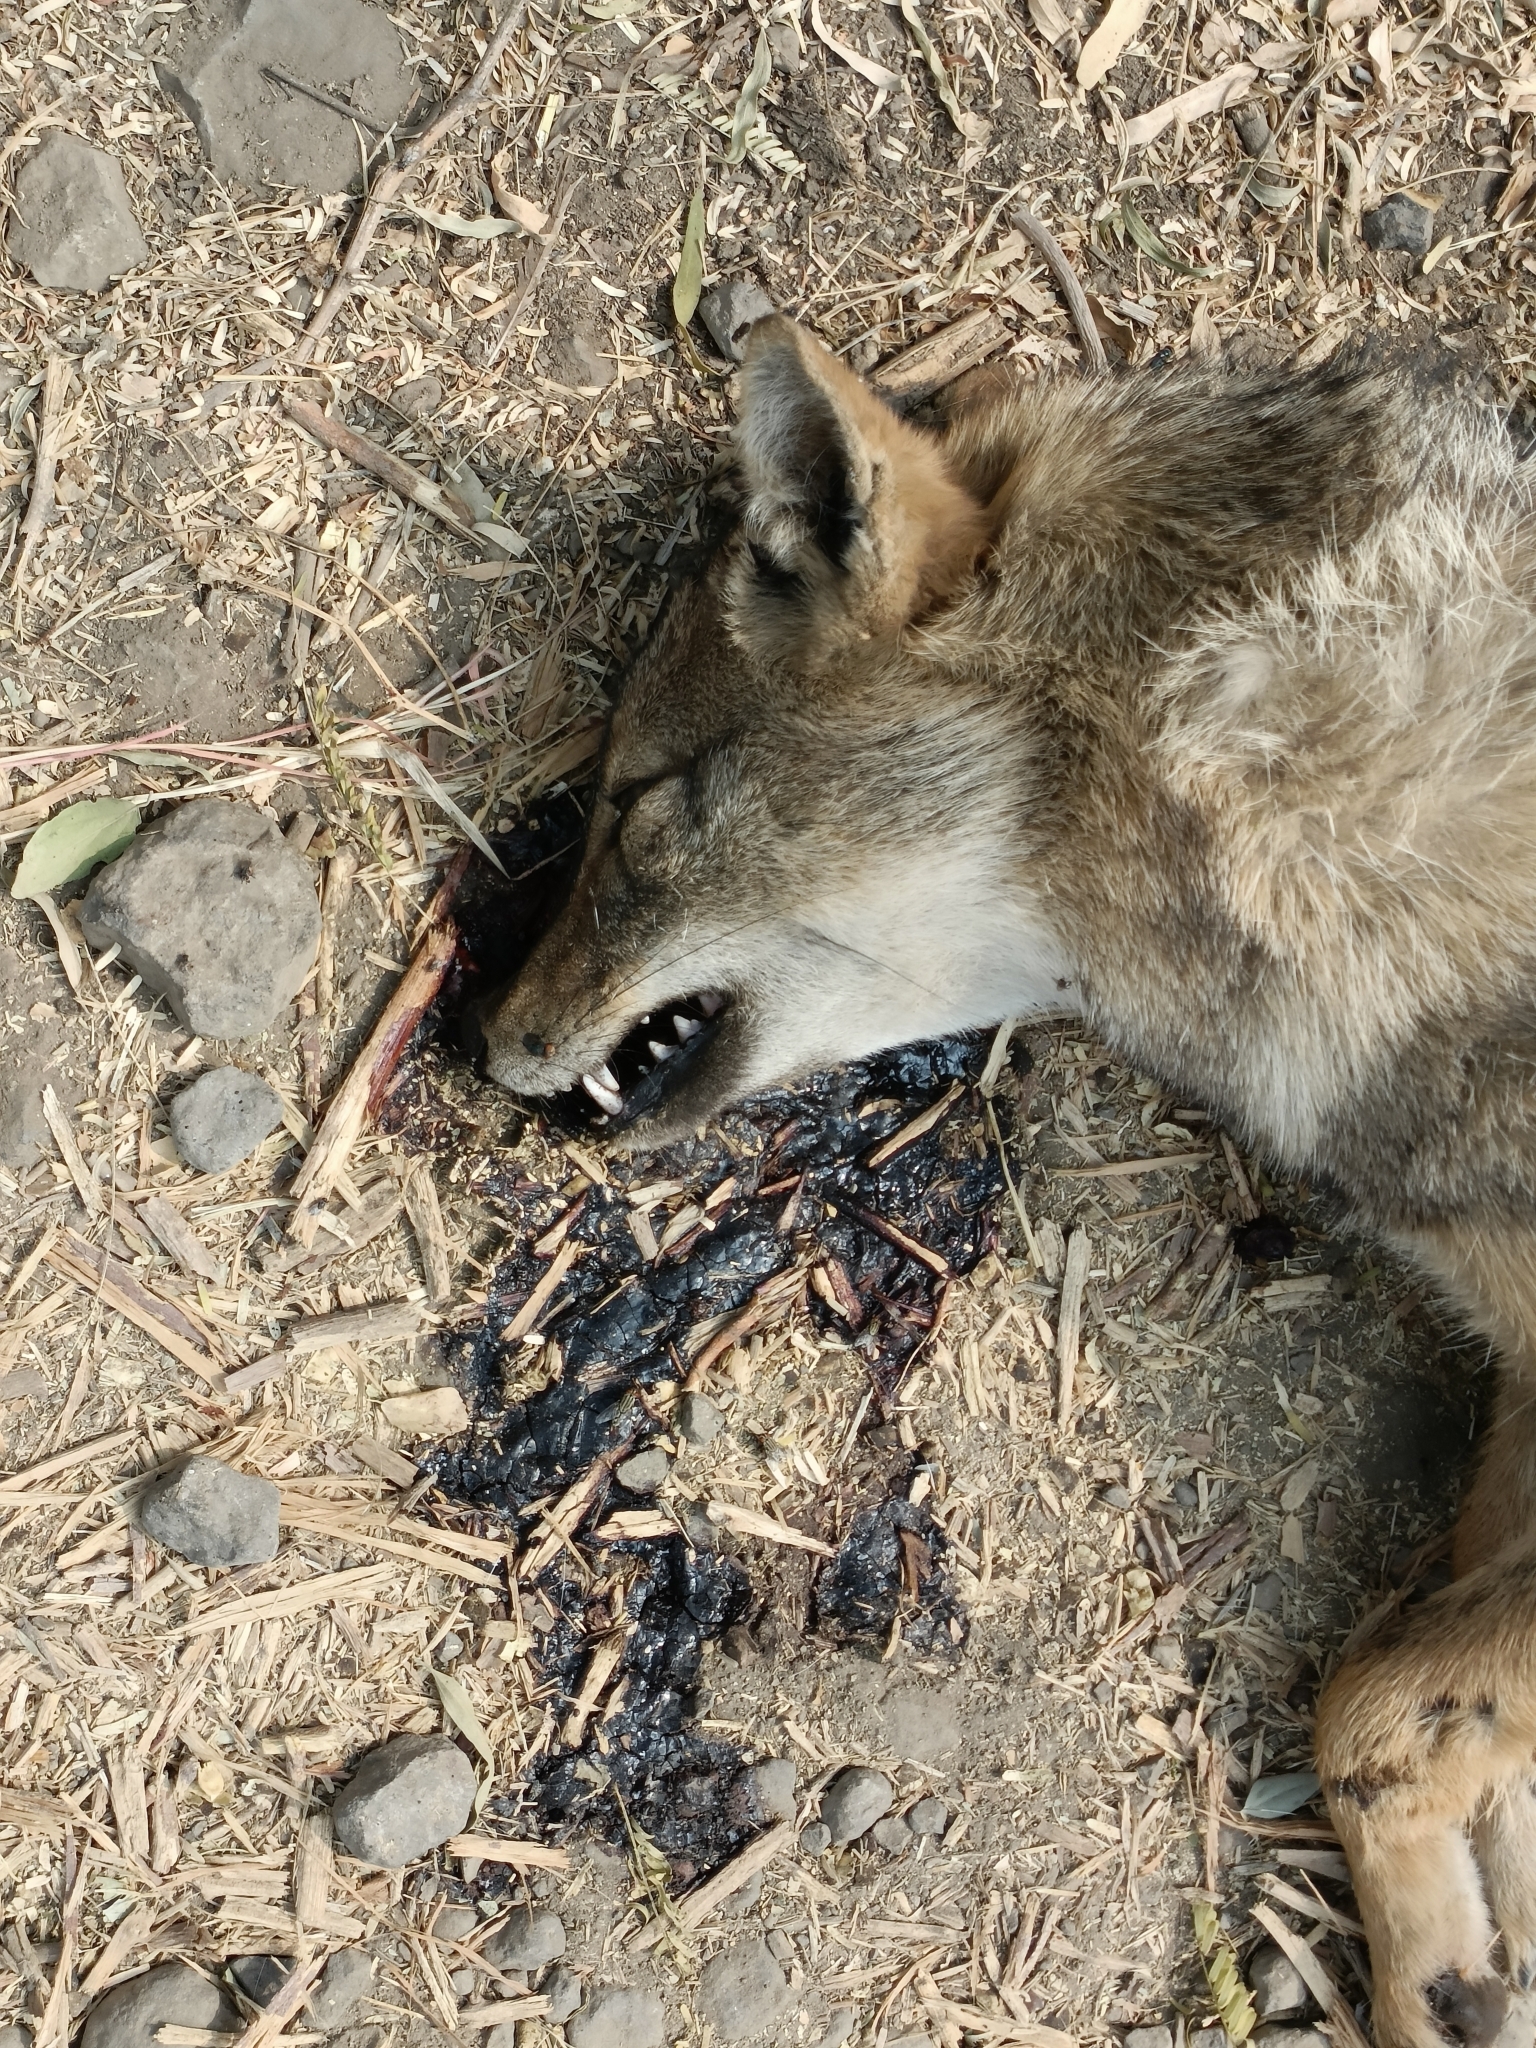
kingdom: Animalia
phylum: Chordata
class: Mammalia
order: Carnivora
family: Canidae
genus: Canis
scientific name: Canis aureus
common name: Golden jackal
